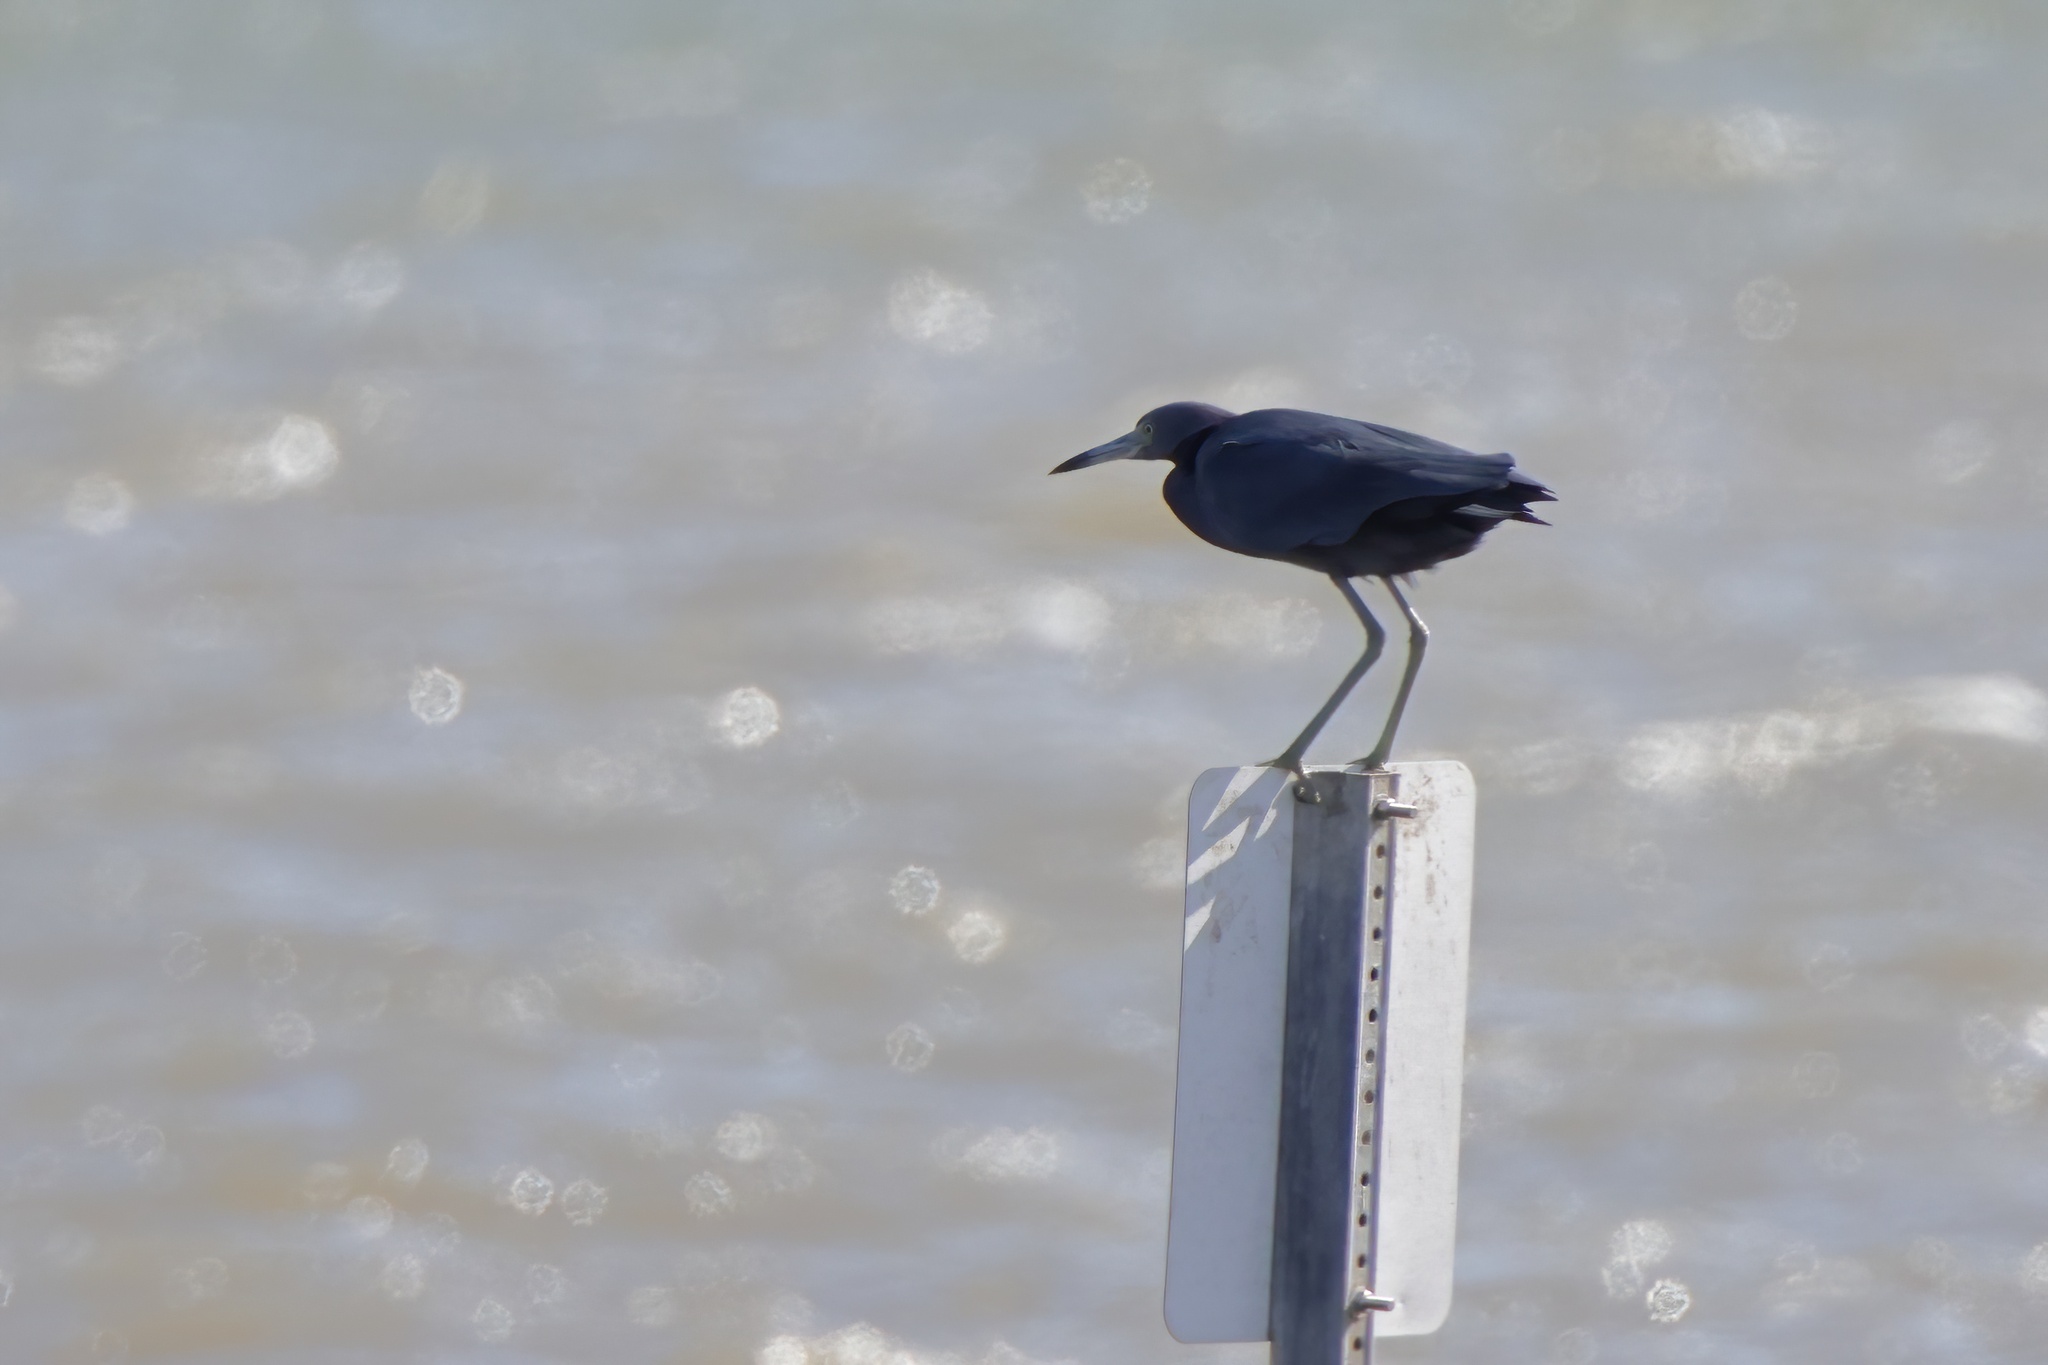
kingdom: Animalia
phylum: Chordata
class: Aves
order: Pelecaniformes
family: Ardeidae
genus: Egretta
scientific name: Egretta caerulea
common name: Little blue heron
